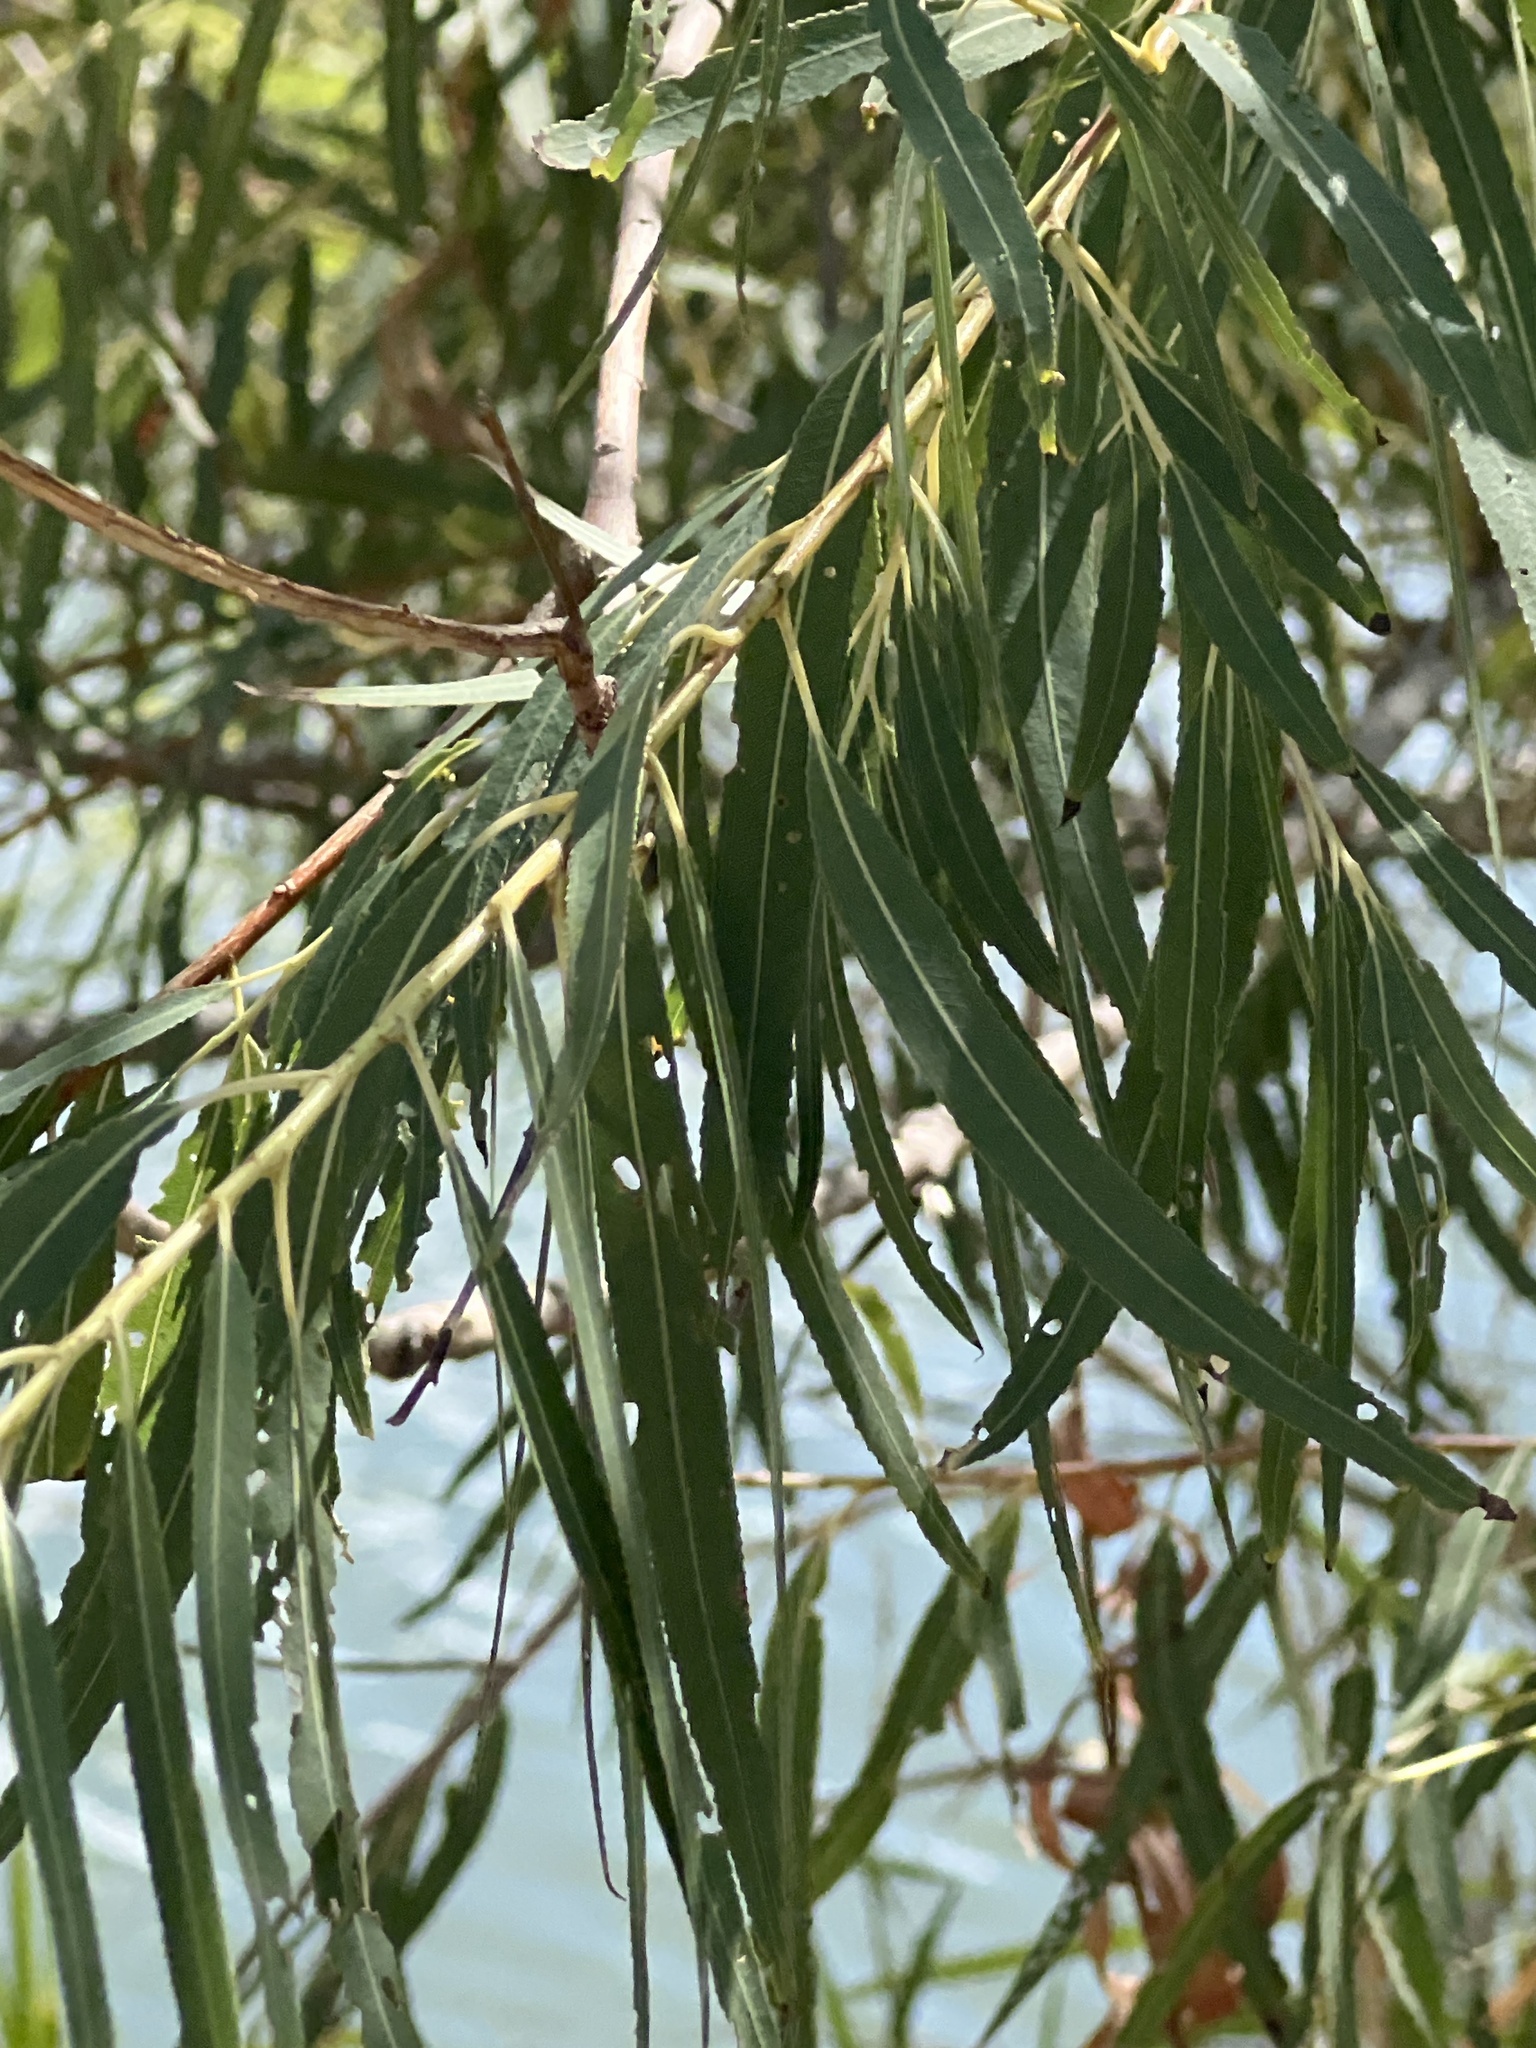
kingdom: Plantae
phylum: Tracheophyta
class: Magnoliopsida
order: Malpighiales
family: Salicaceae
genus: Salix
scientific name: Salix nigra
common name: Black willow
